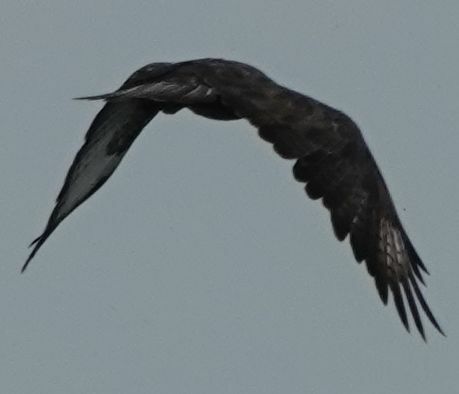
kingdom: Animalia
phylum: Chordata
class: Aves
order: Accipitriformes
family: Accipitridae
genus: Buteo
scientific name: Buteo buteo
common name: Common buzzard
